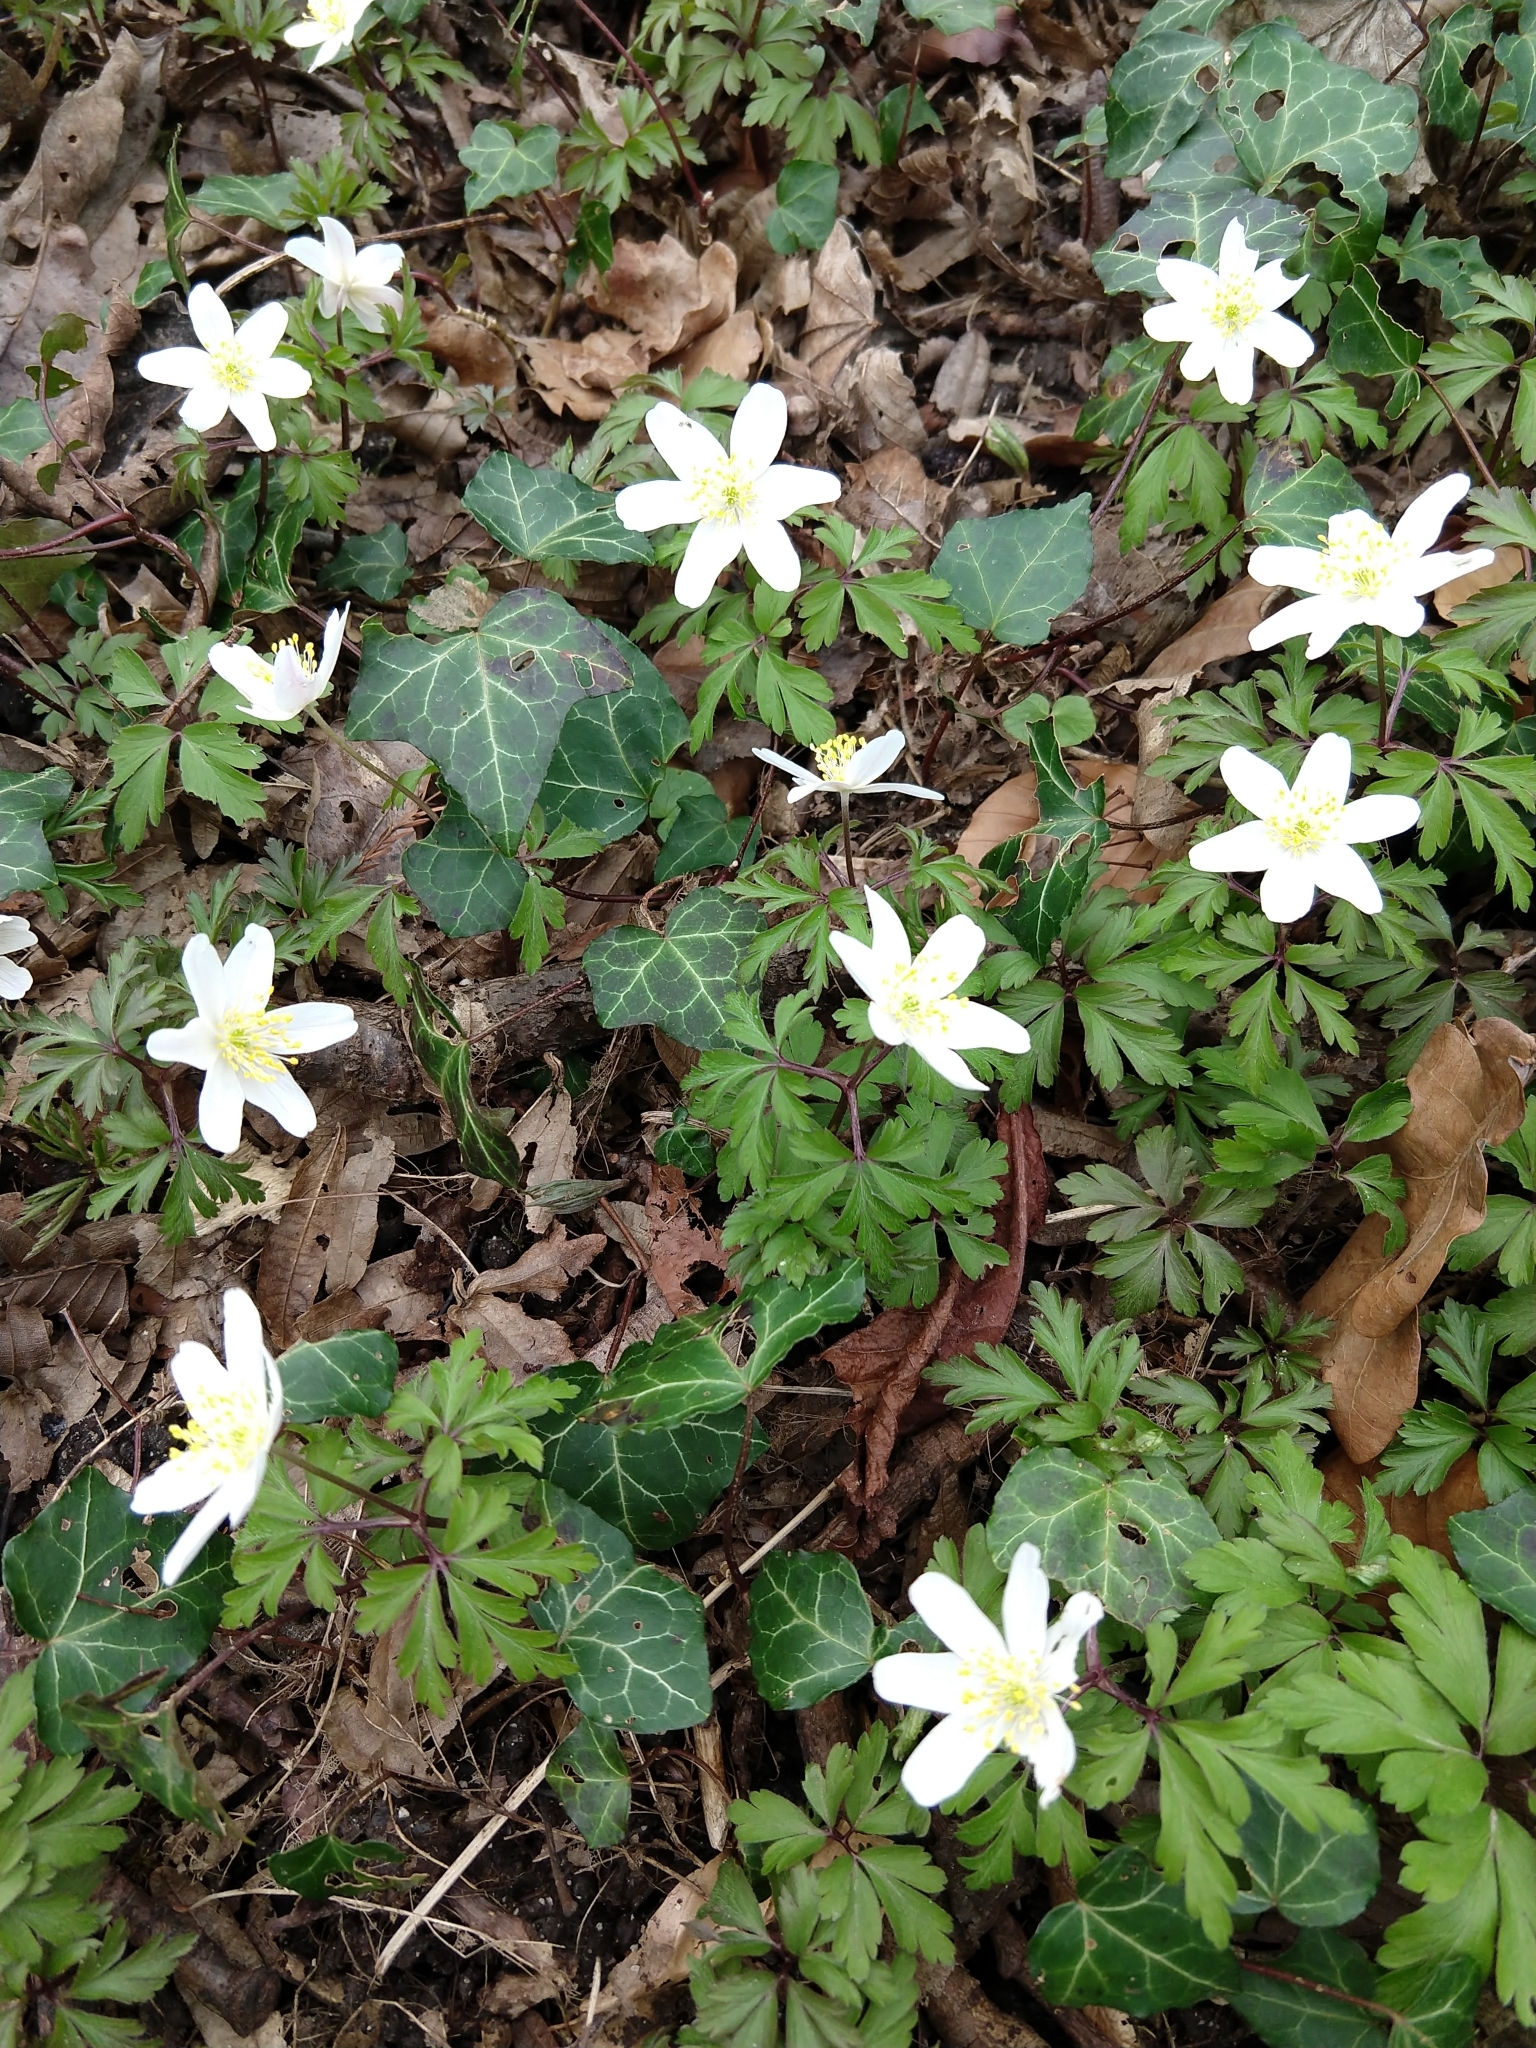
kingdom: Plantae
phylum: Tracheophyta
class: Magnoliopsida
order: Ranunculales
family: Ranunculaceae
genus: Anemone
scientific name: Anemone nemorosa
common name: Wood anemone
